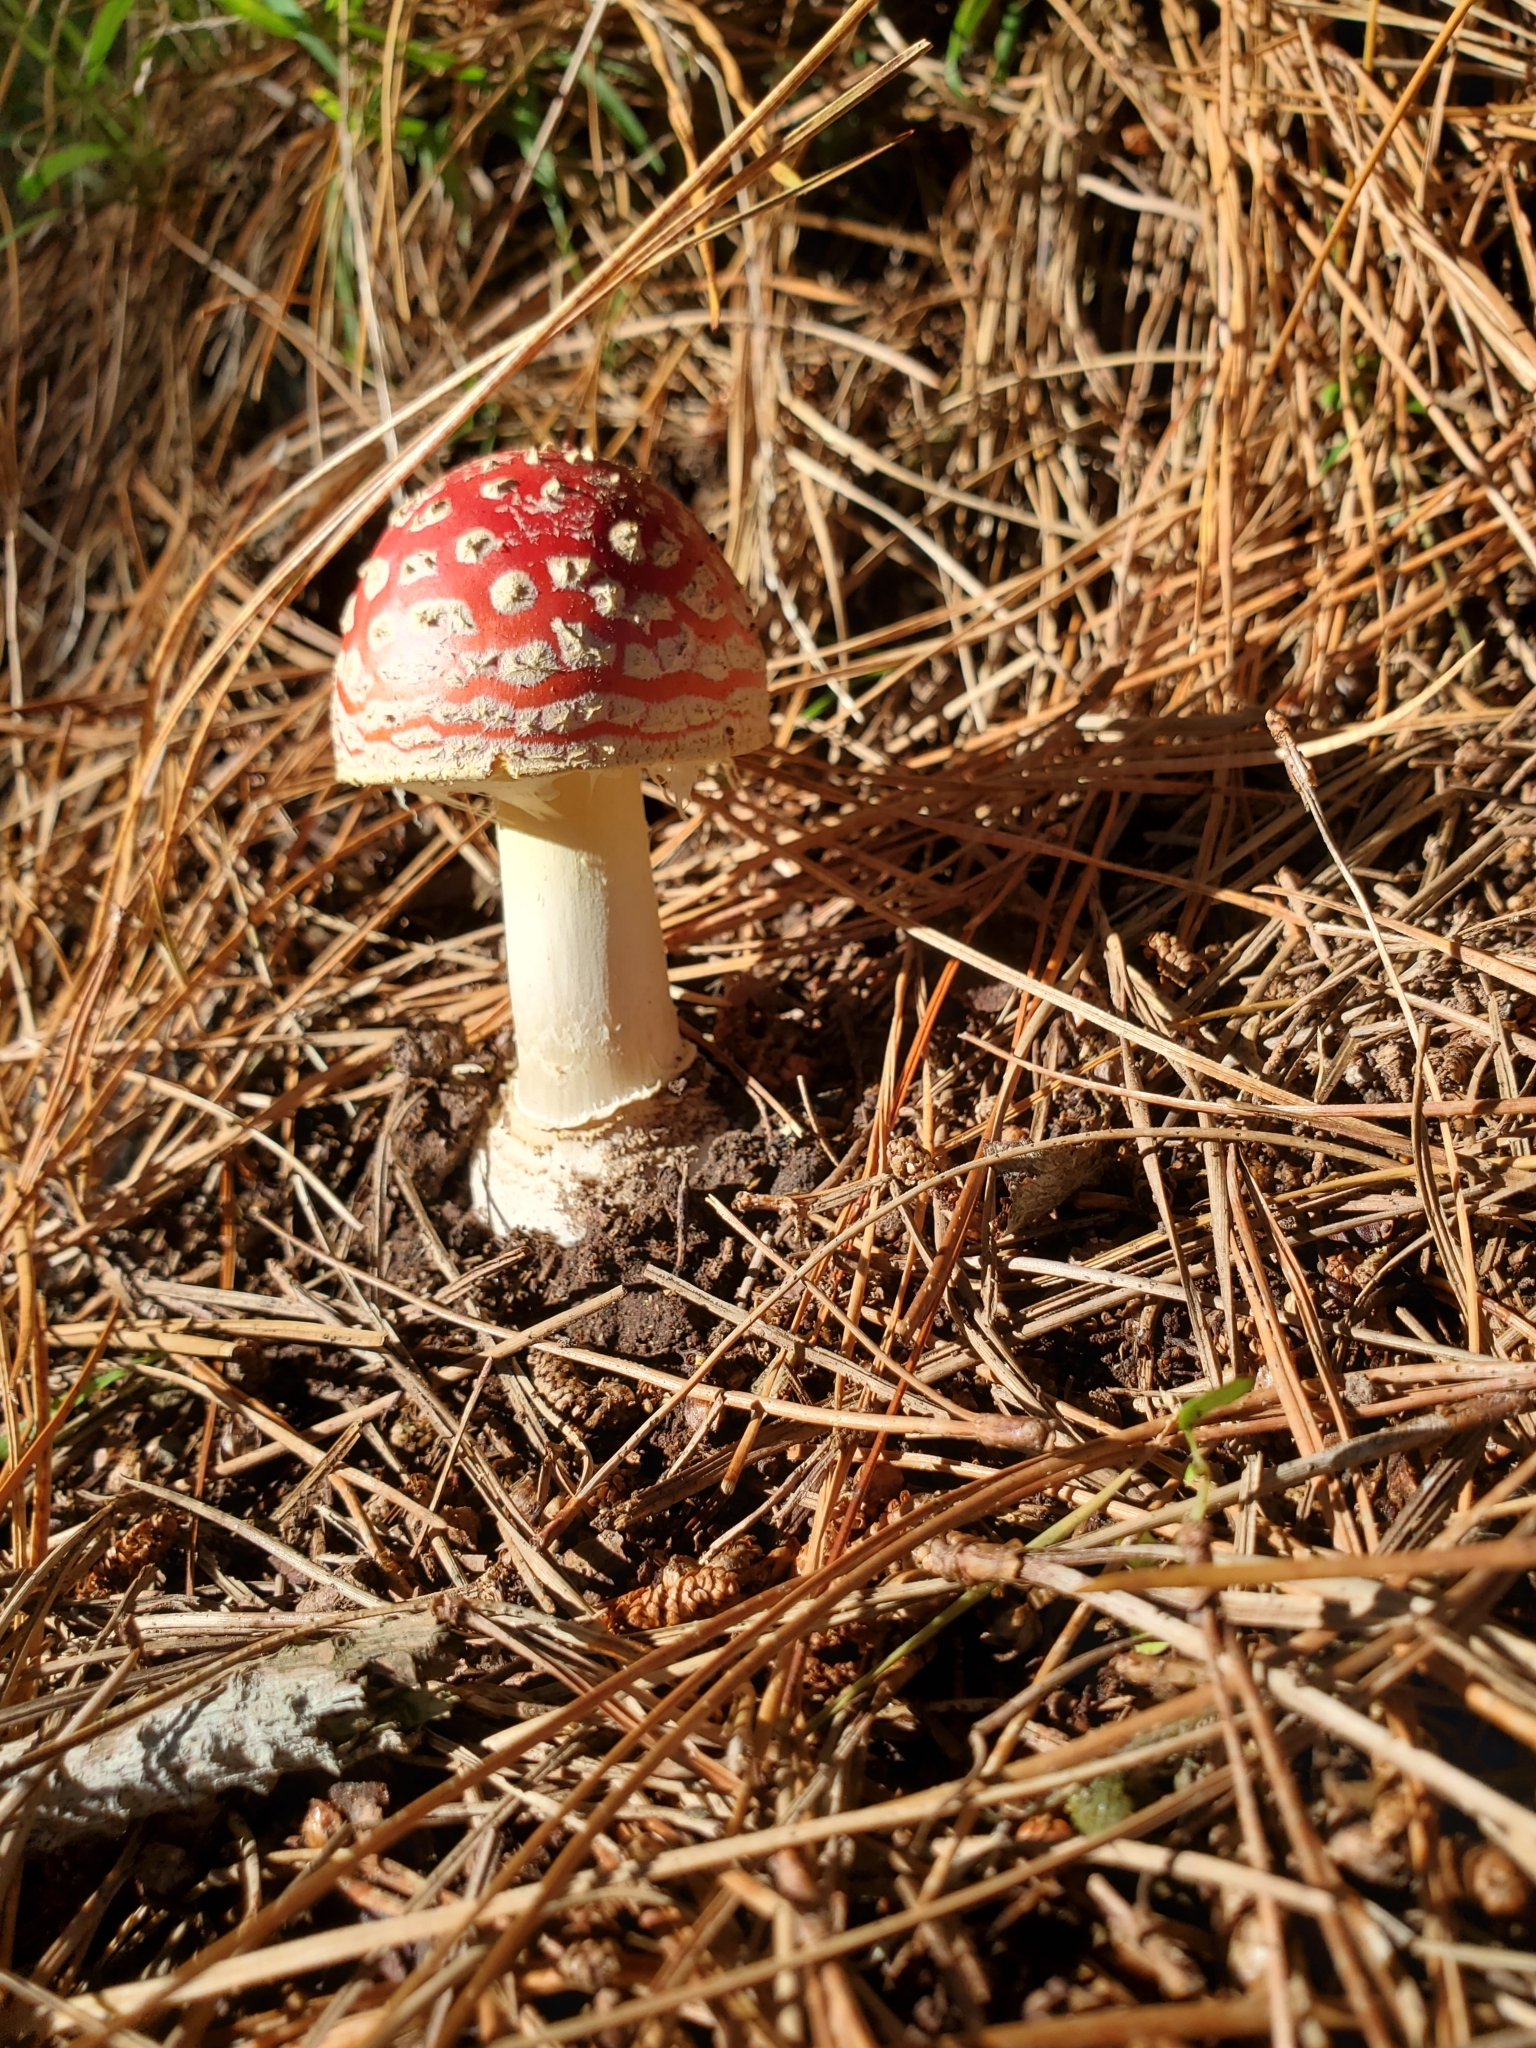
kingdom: Fungi
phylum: Basidiomycota
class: Agaricomycetes
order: Agaricales
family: Amanitaceae
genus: Amanita
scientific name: Amanita muscaria
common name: Fly agaric
